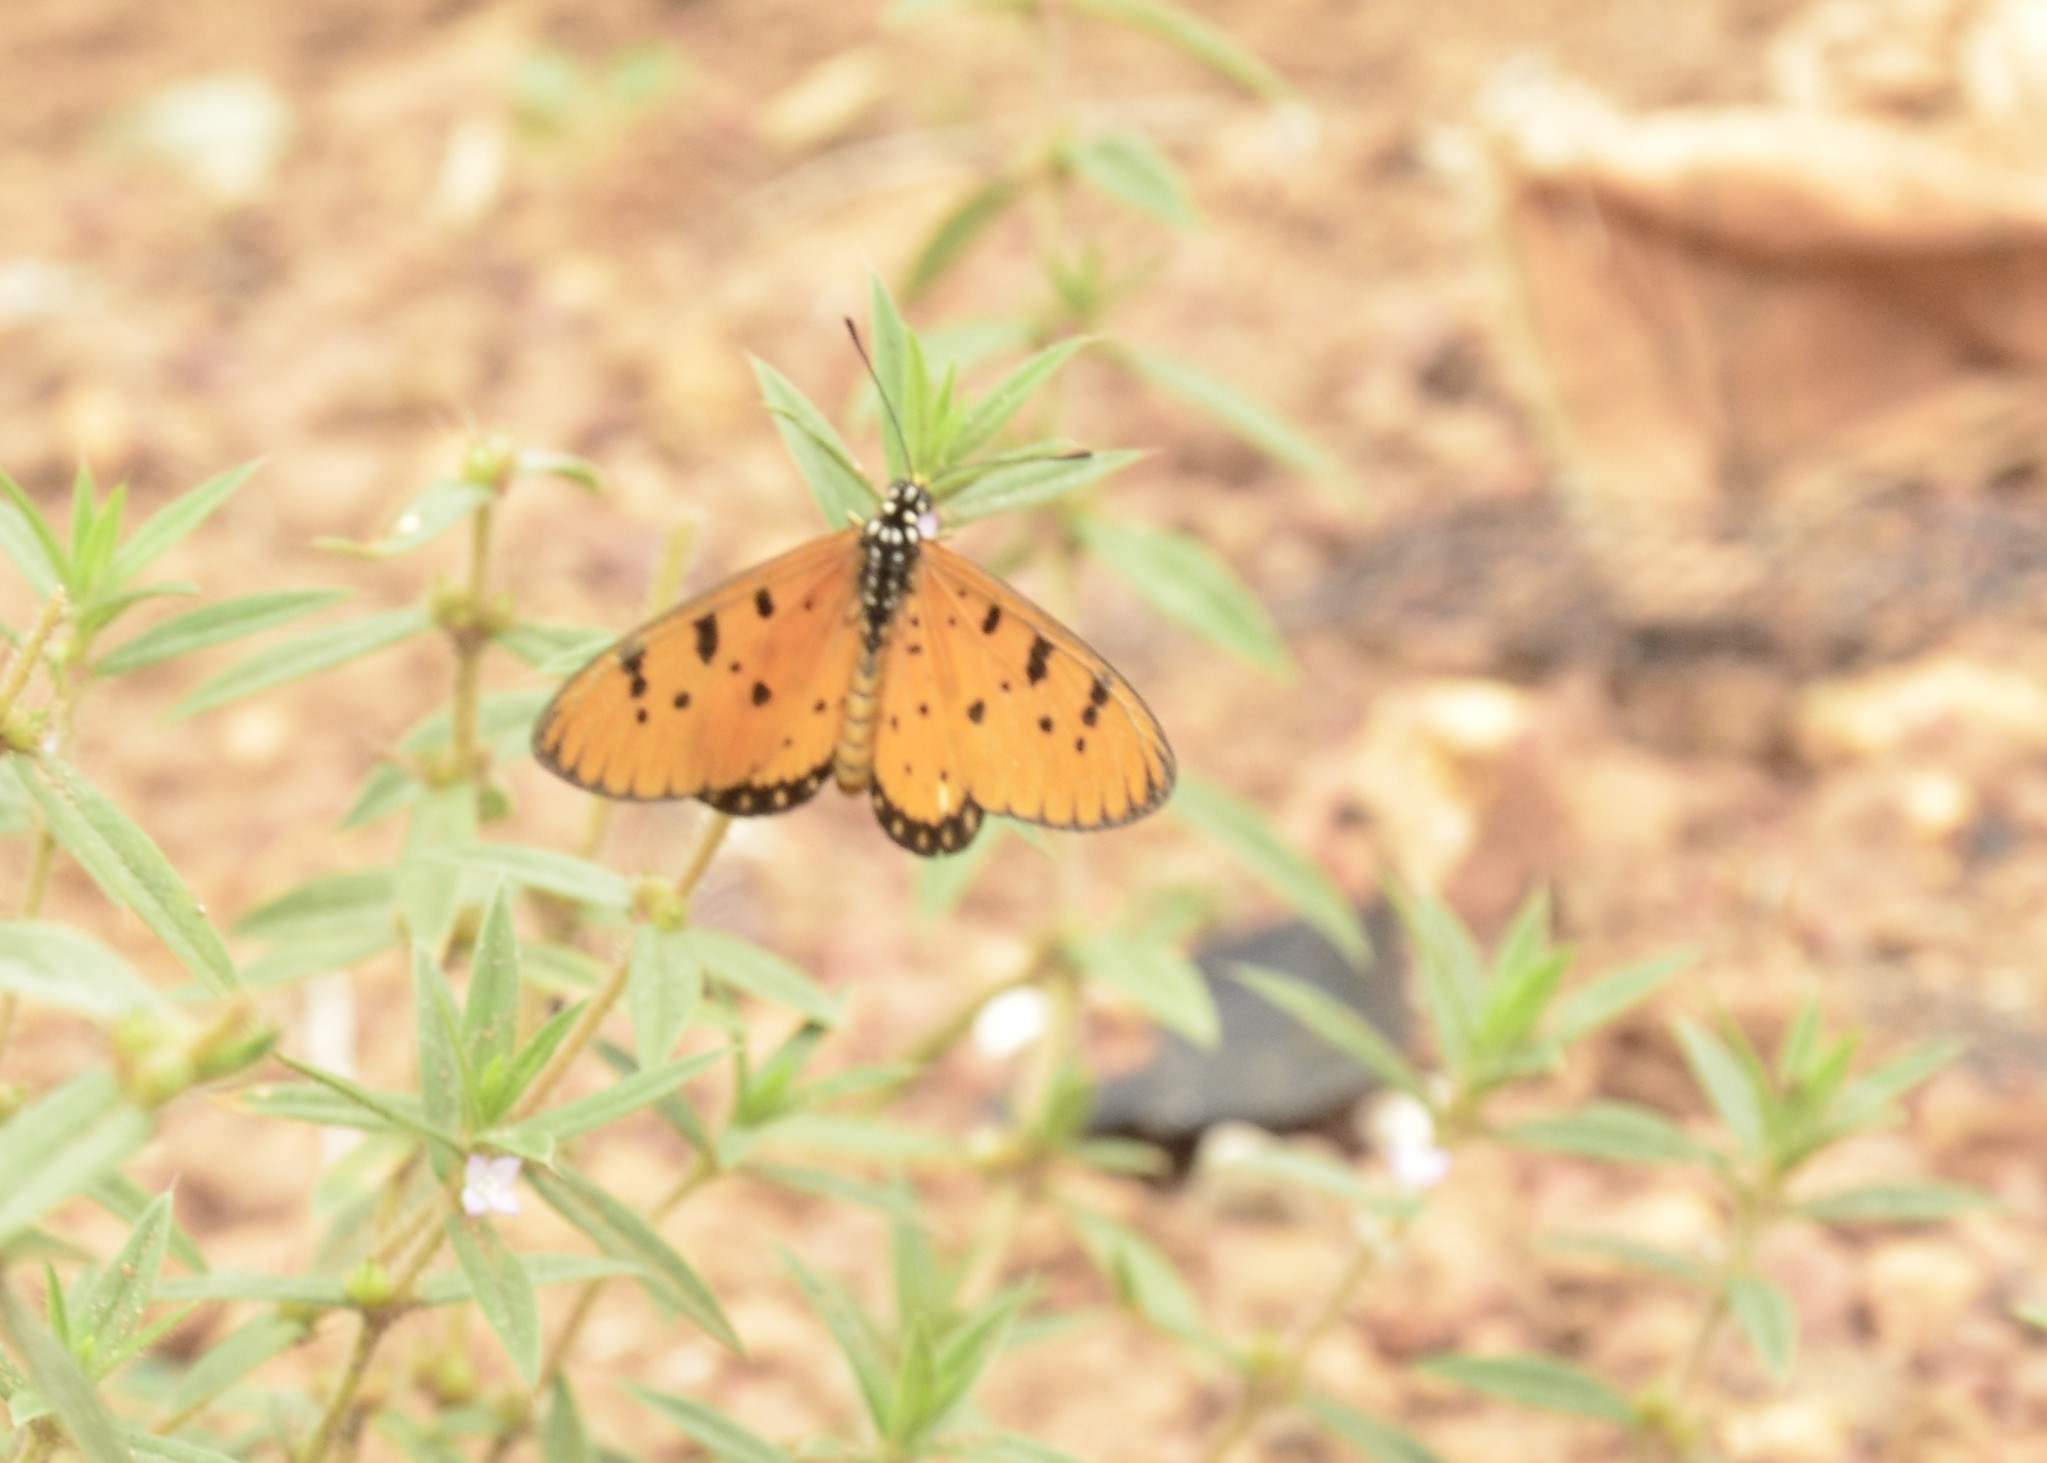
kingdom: Animalia
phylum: Arthropoda
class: Insecta
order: Lepidoptera
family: Nymphalidae
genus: Acraea
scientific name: Acraea terpsicore
